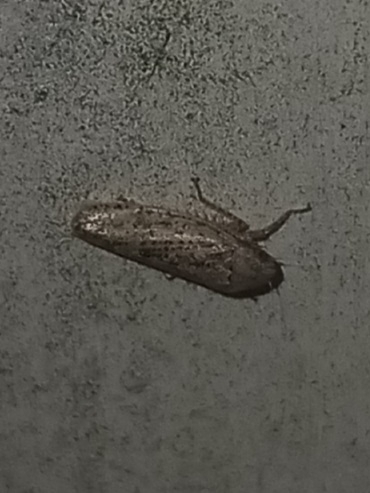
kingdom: Animalia
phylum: Arthropoda
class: Insecta
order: Hemiptera
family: Cicadellidae
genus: Curtara
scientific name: Curtara insularis
